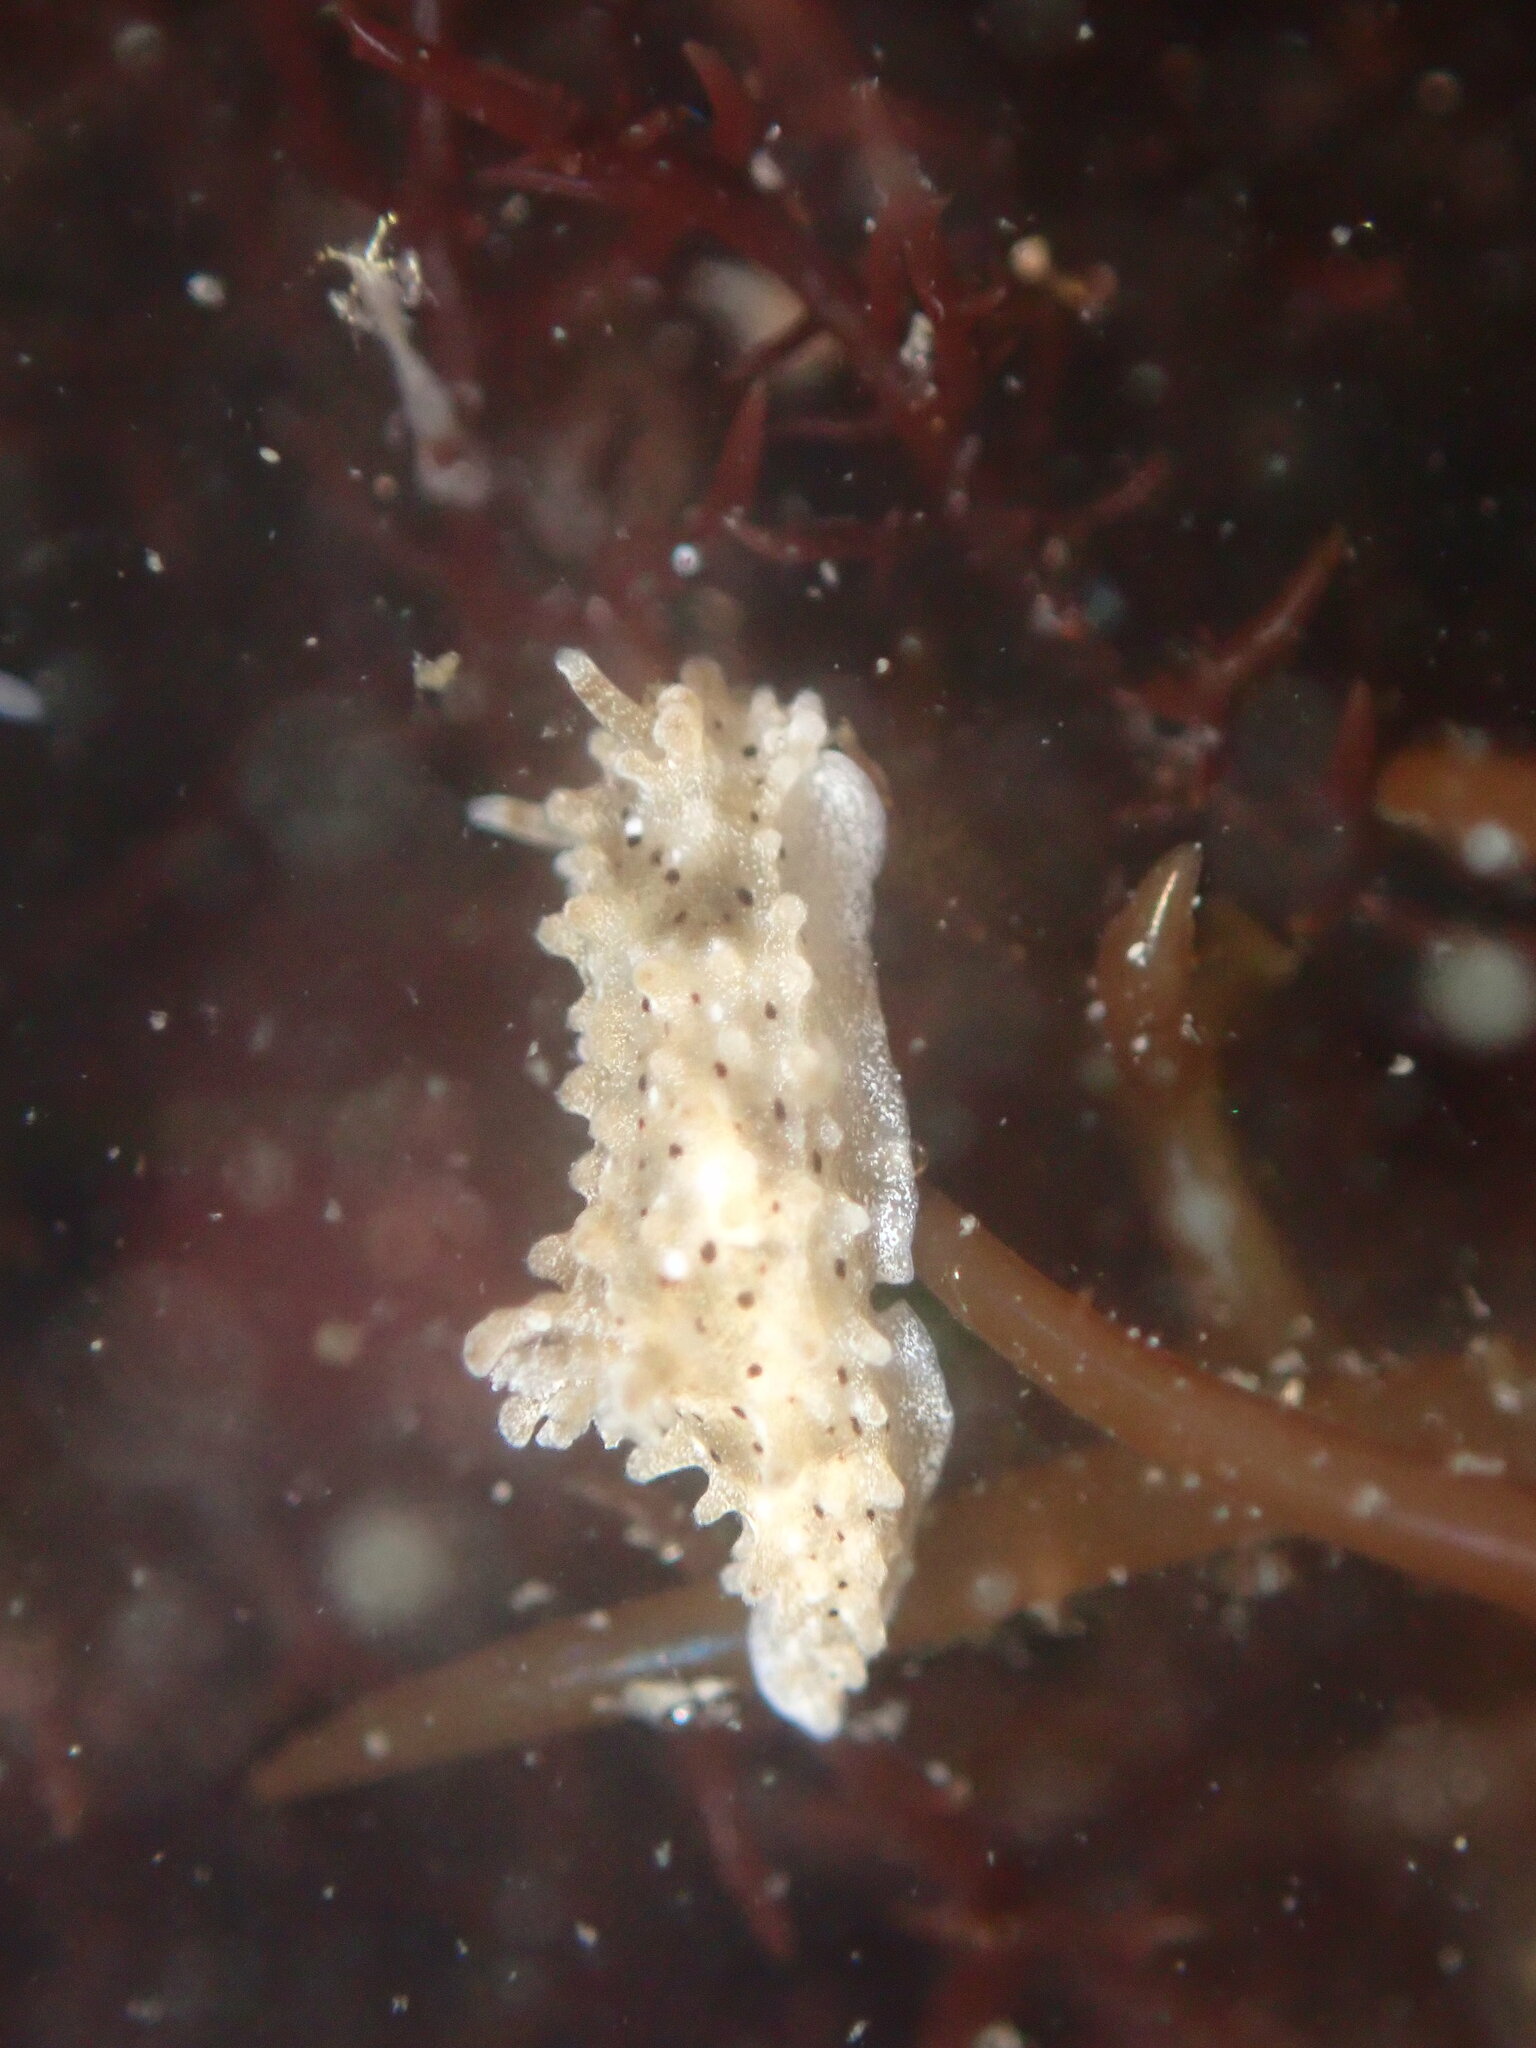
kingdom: Animalia
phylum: Mollusca
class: Gastropoda
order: Nudibranchia
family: Aegiridae
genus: Aegires
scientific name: Aegires albopunctatus
